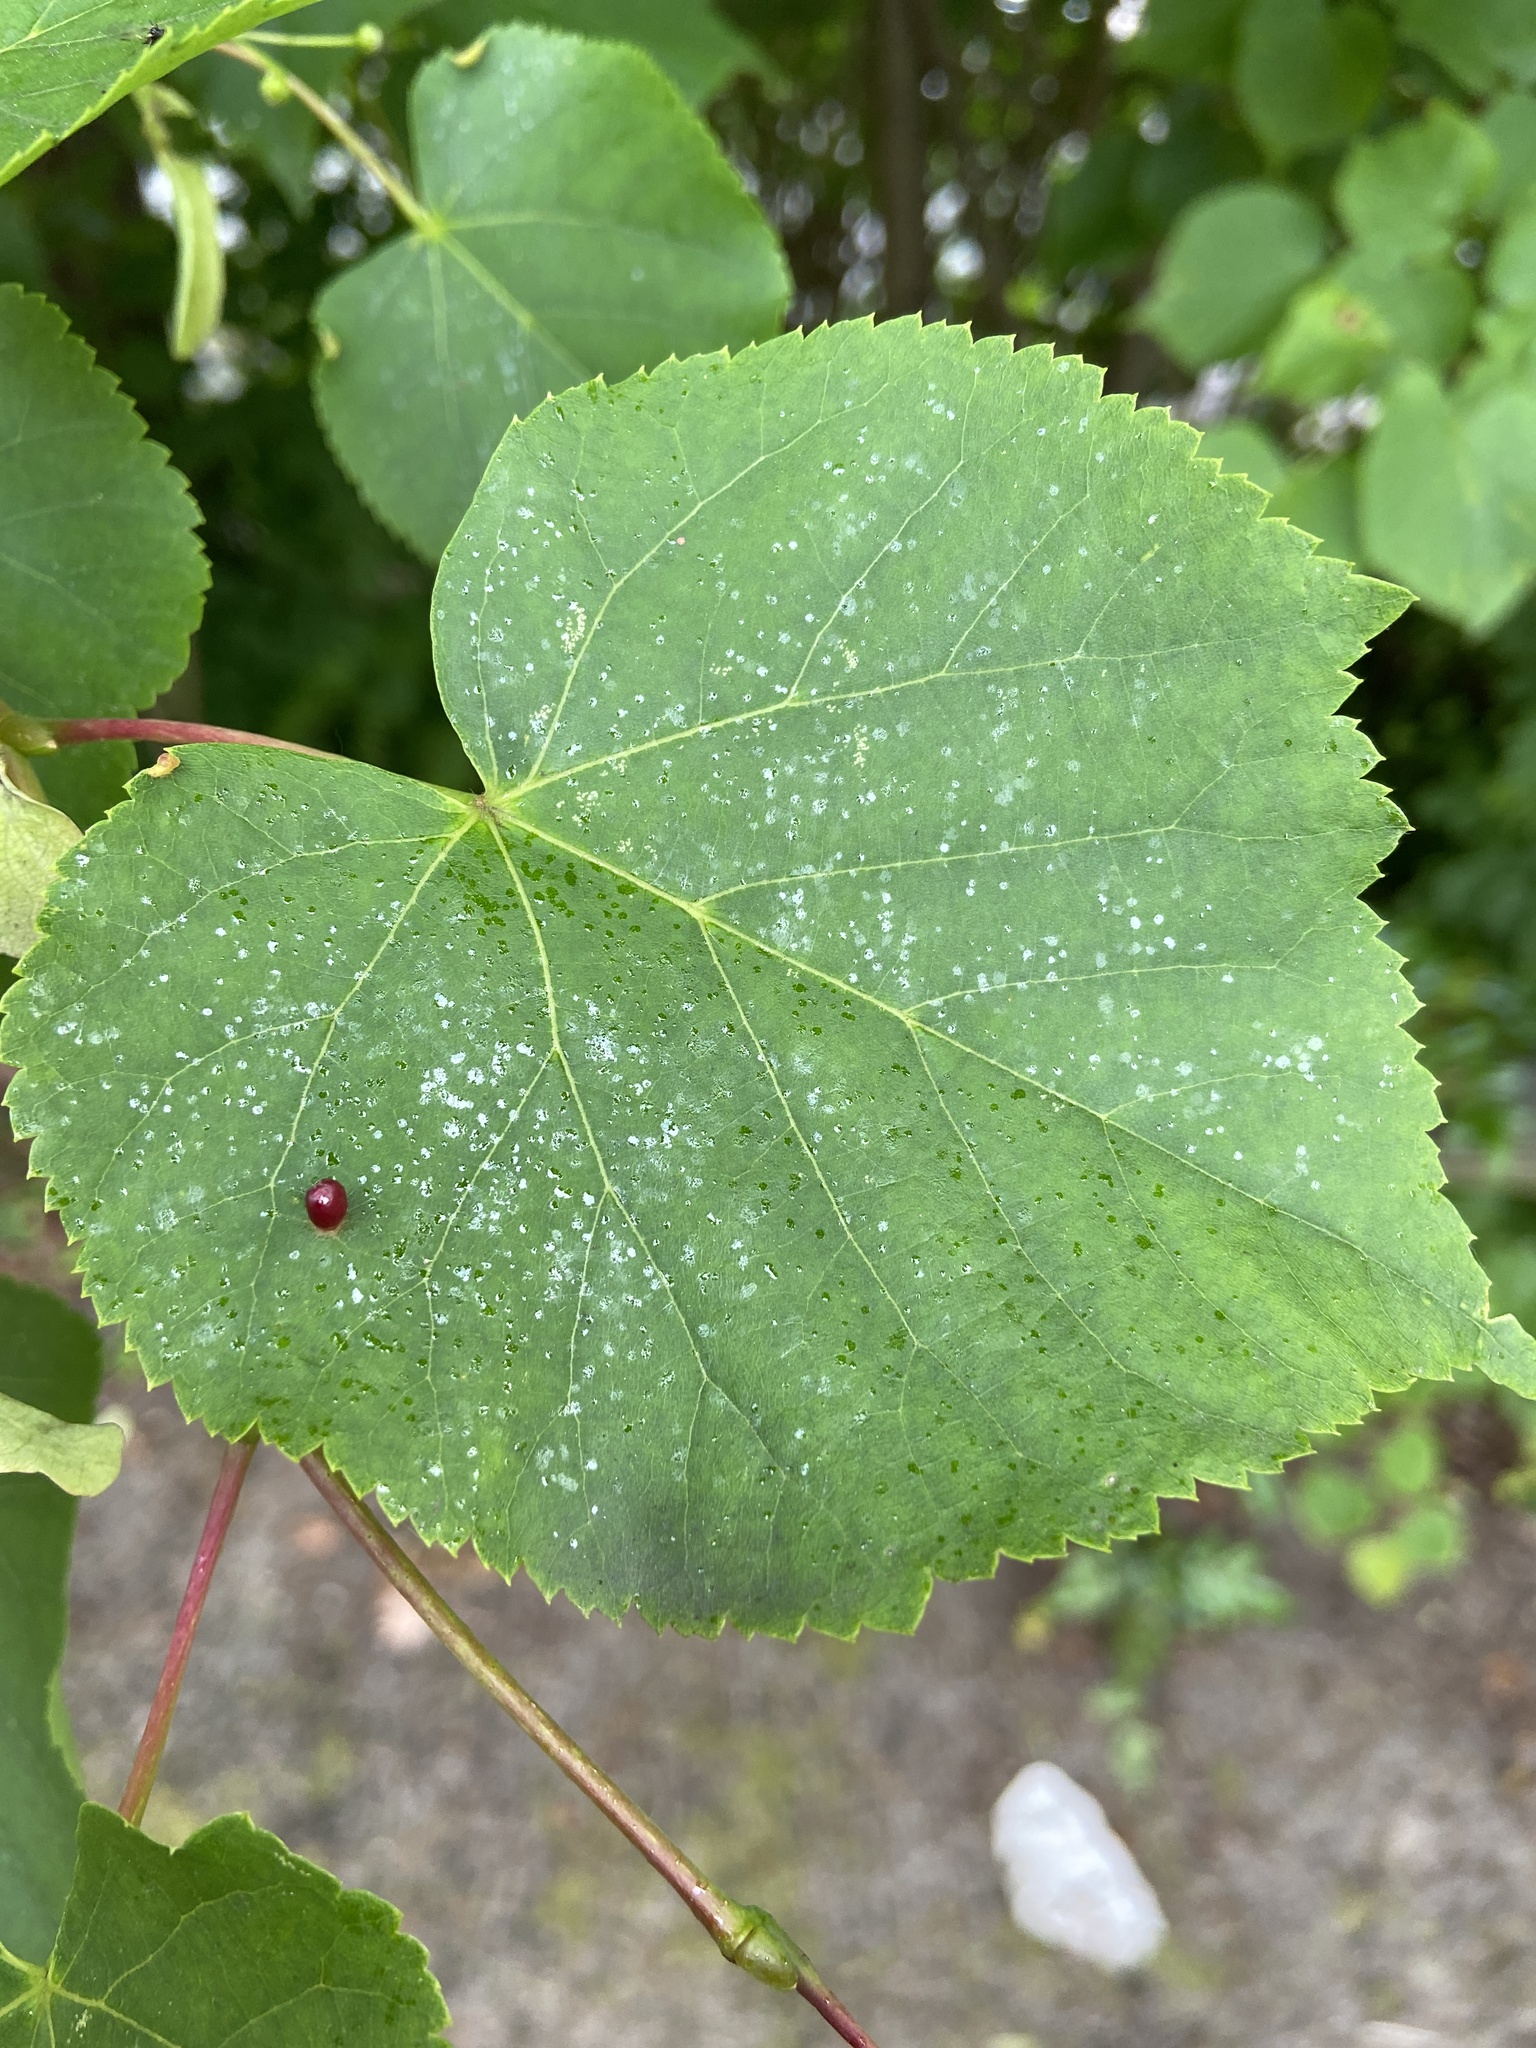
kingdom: Animalia
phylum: Arthropoda
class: Arachnida
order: Trombidiformes
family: Eriophyidae
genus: Eriophyes
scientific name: Eriophyes tiliae
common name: Red nail gall mite
